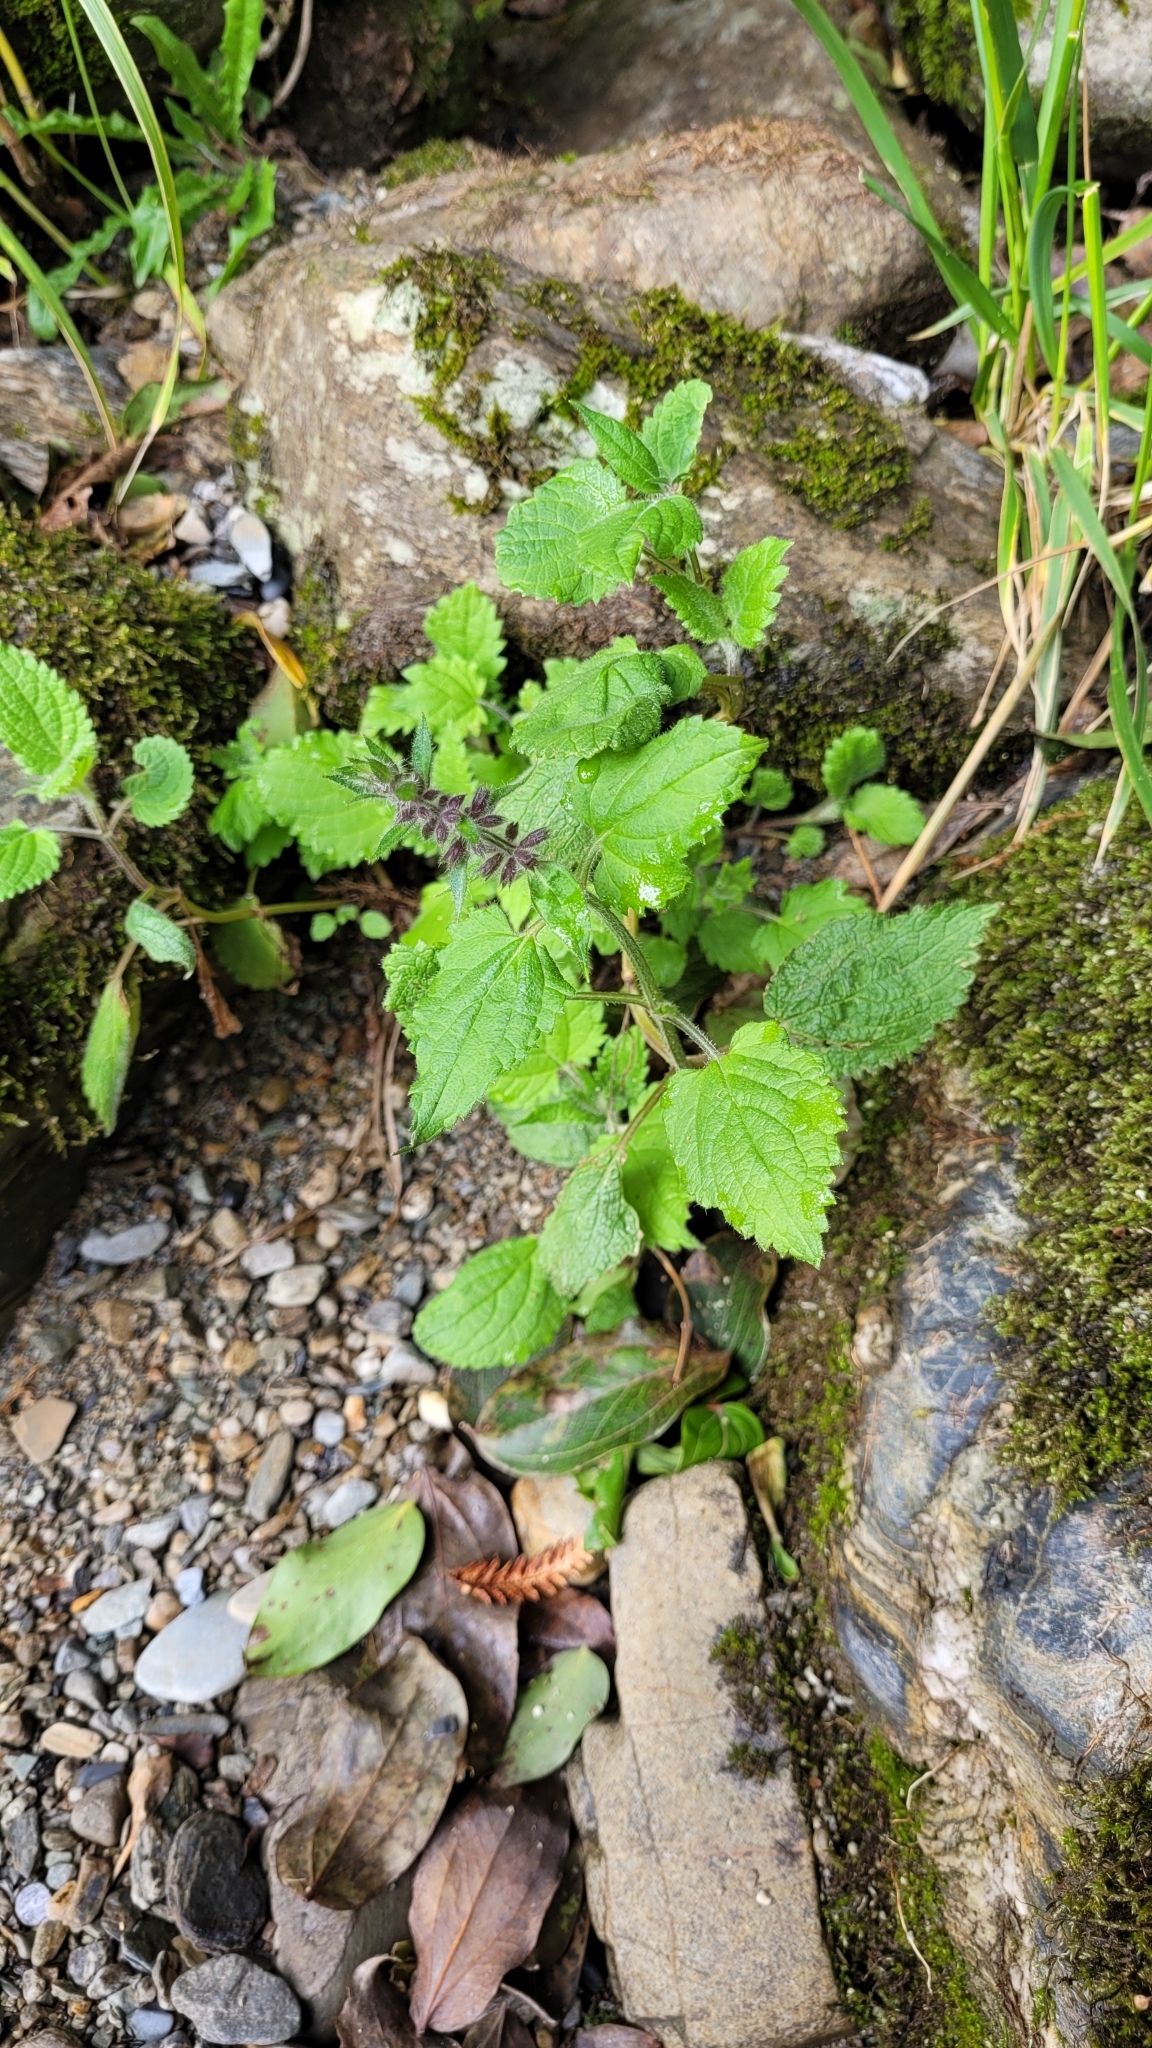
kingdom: Plantae
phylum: Tracheophyta
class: Magnoliopsida
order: Lamiales
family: Lamiaceae
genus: Stachys
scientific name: Stachys sylvatica
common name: Hedge woundwort
